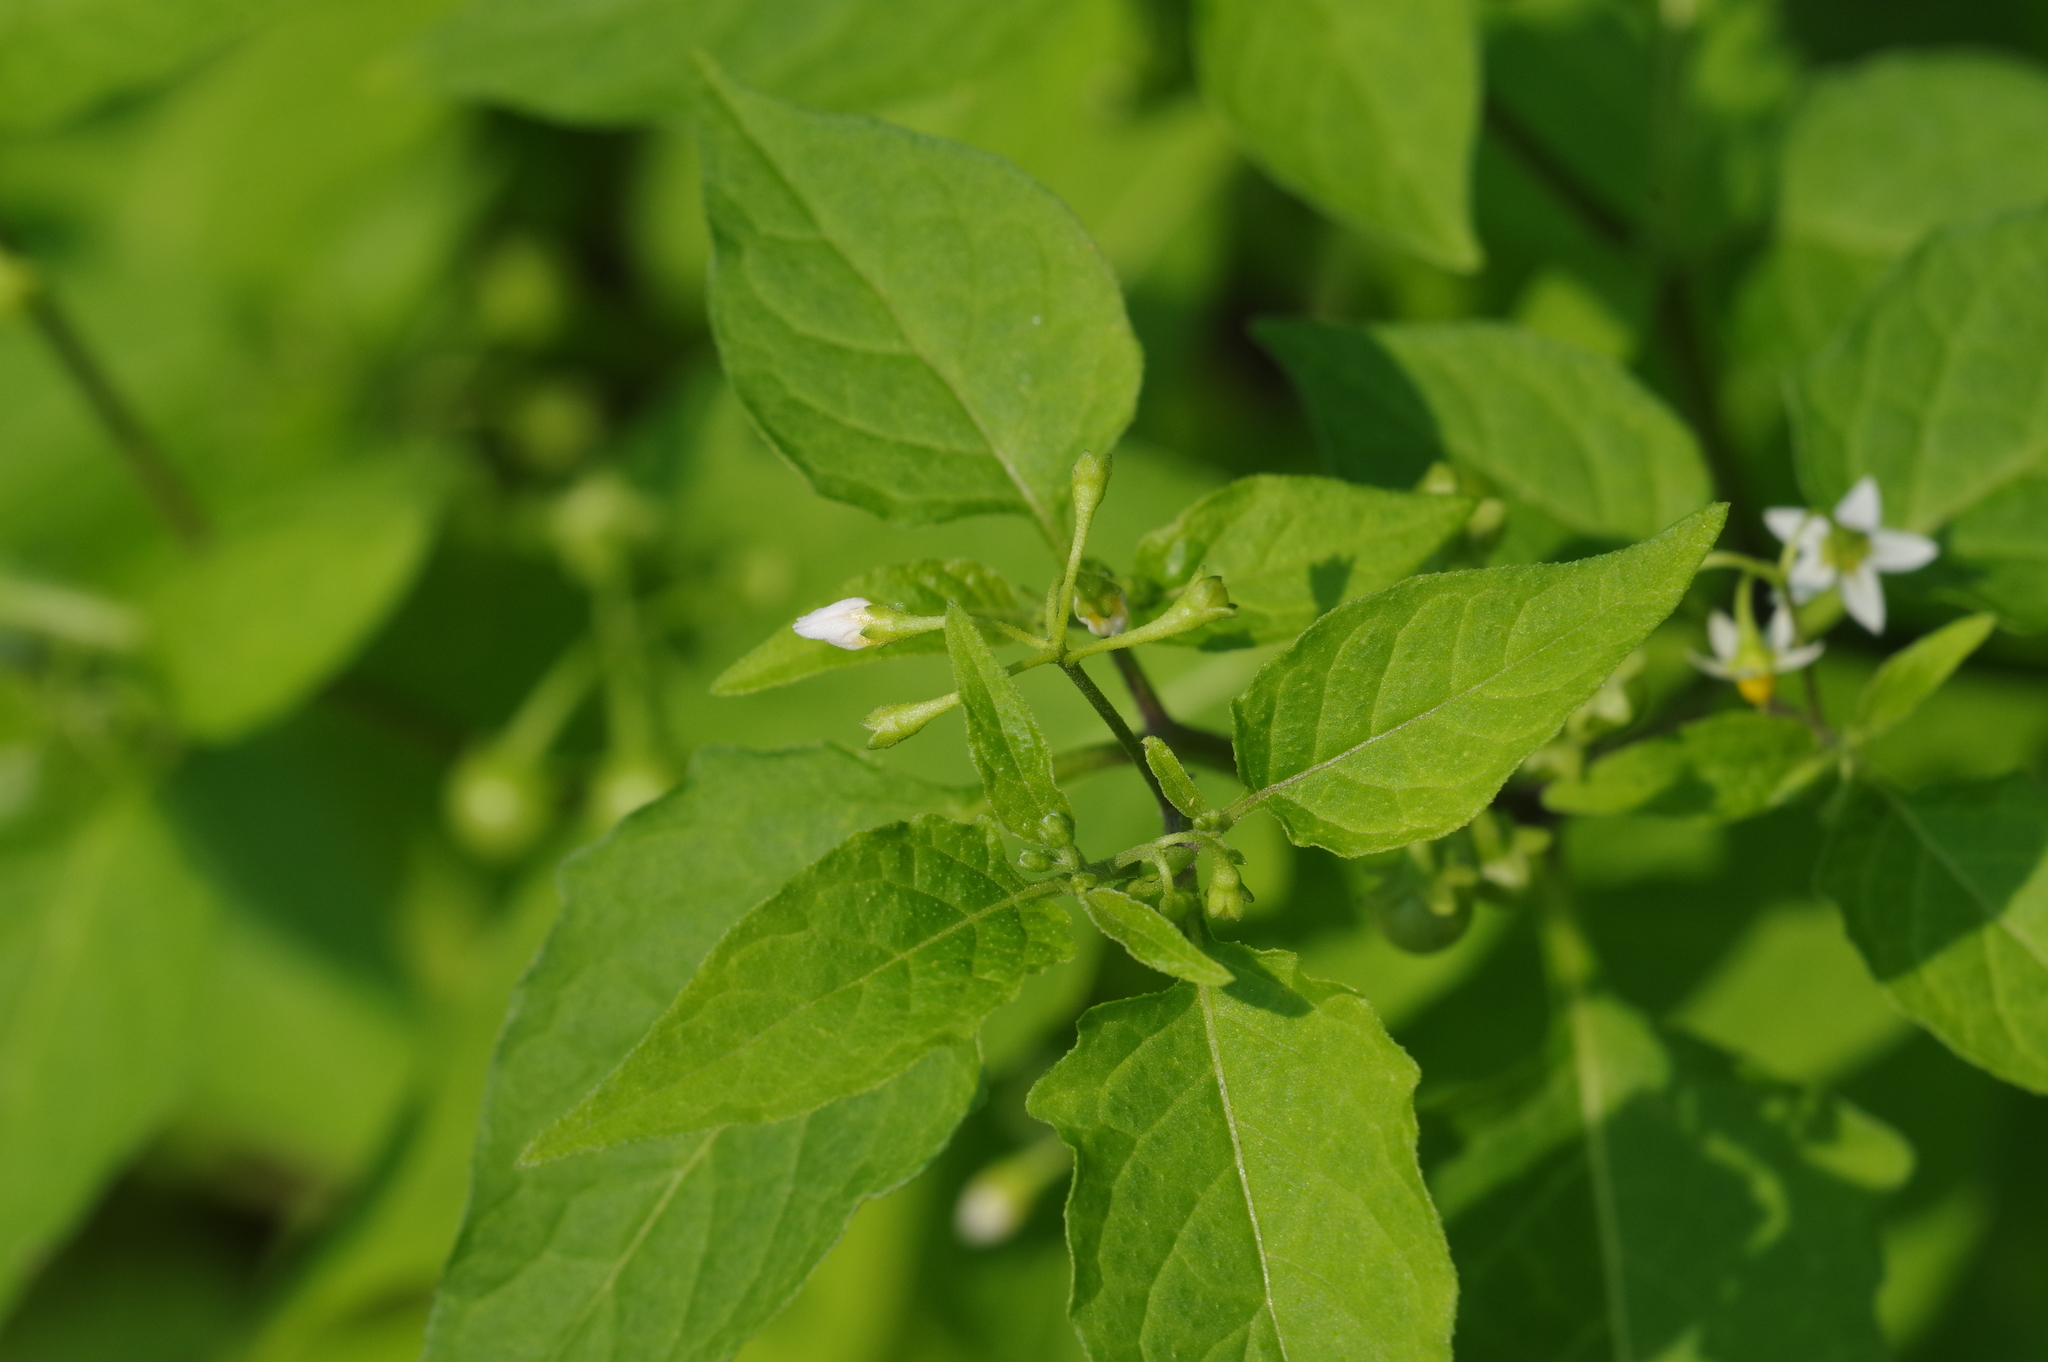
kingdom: Plantae
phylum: Tracheophyta
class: Magnoliopsida
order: Solanales
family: Solanaceae
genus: Solanum
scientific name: Solanum americanum
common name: American black nightshade
